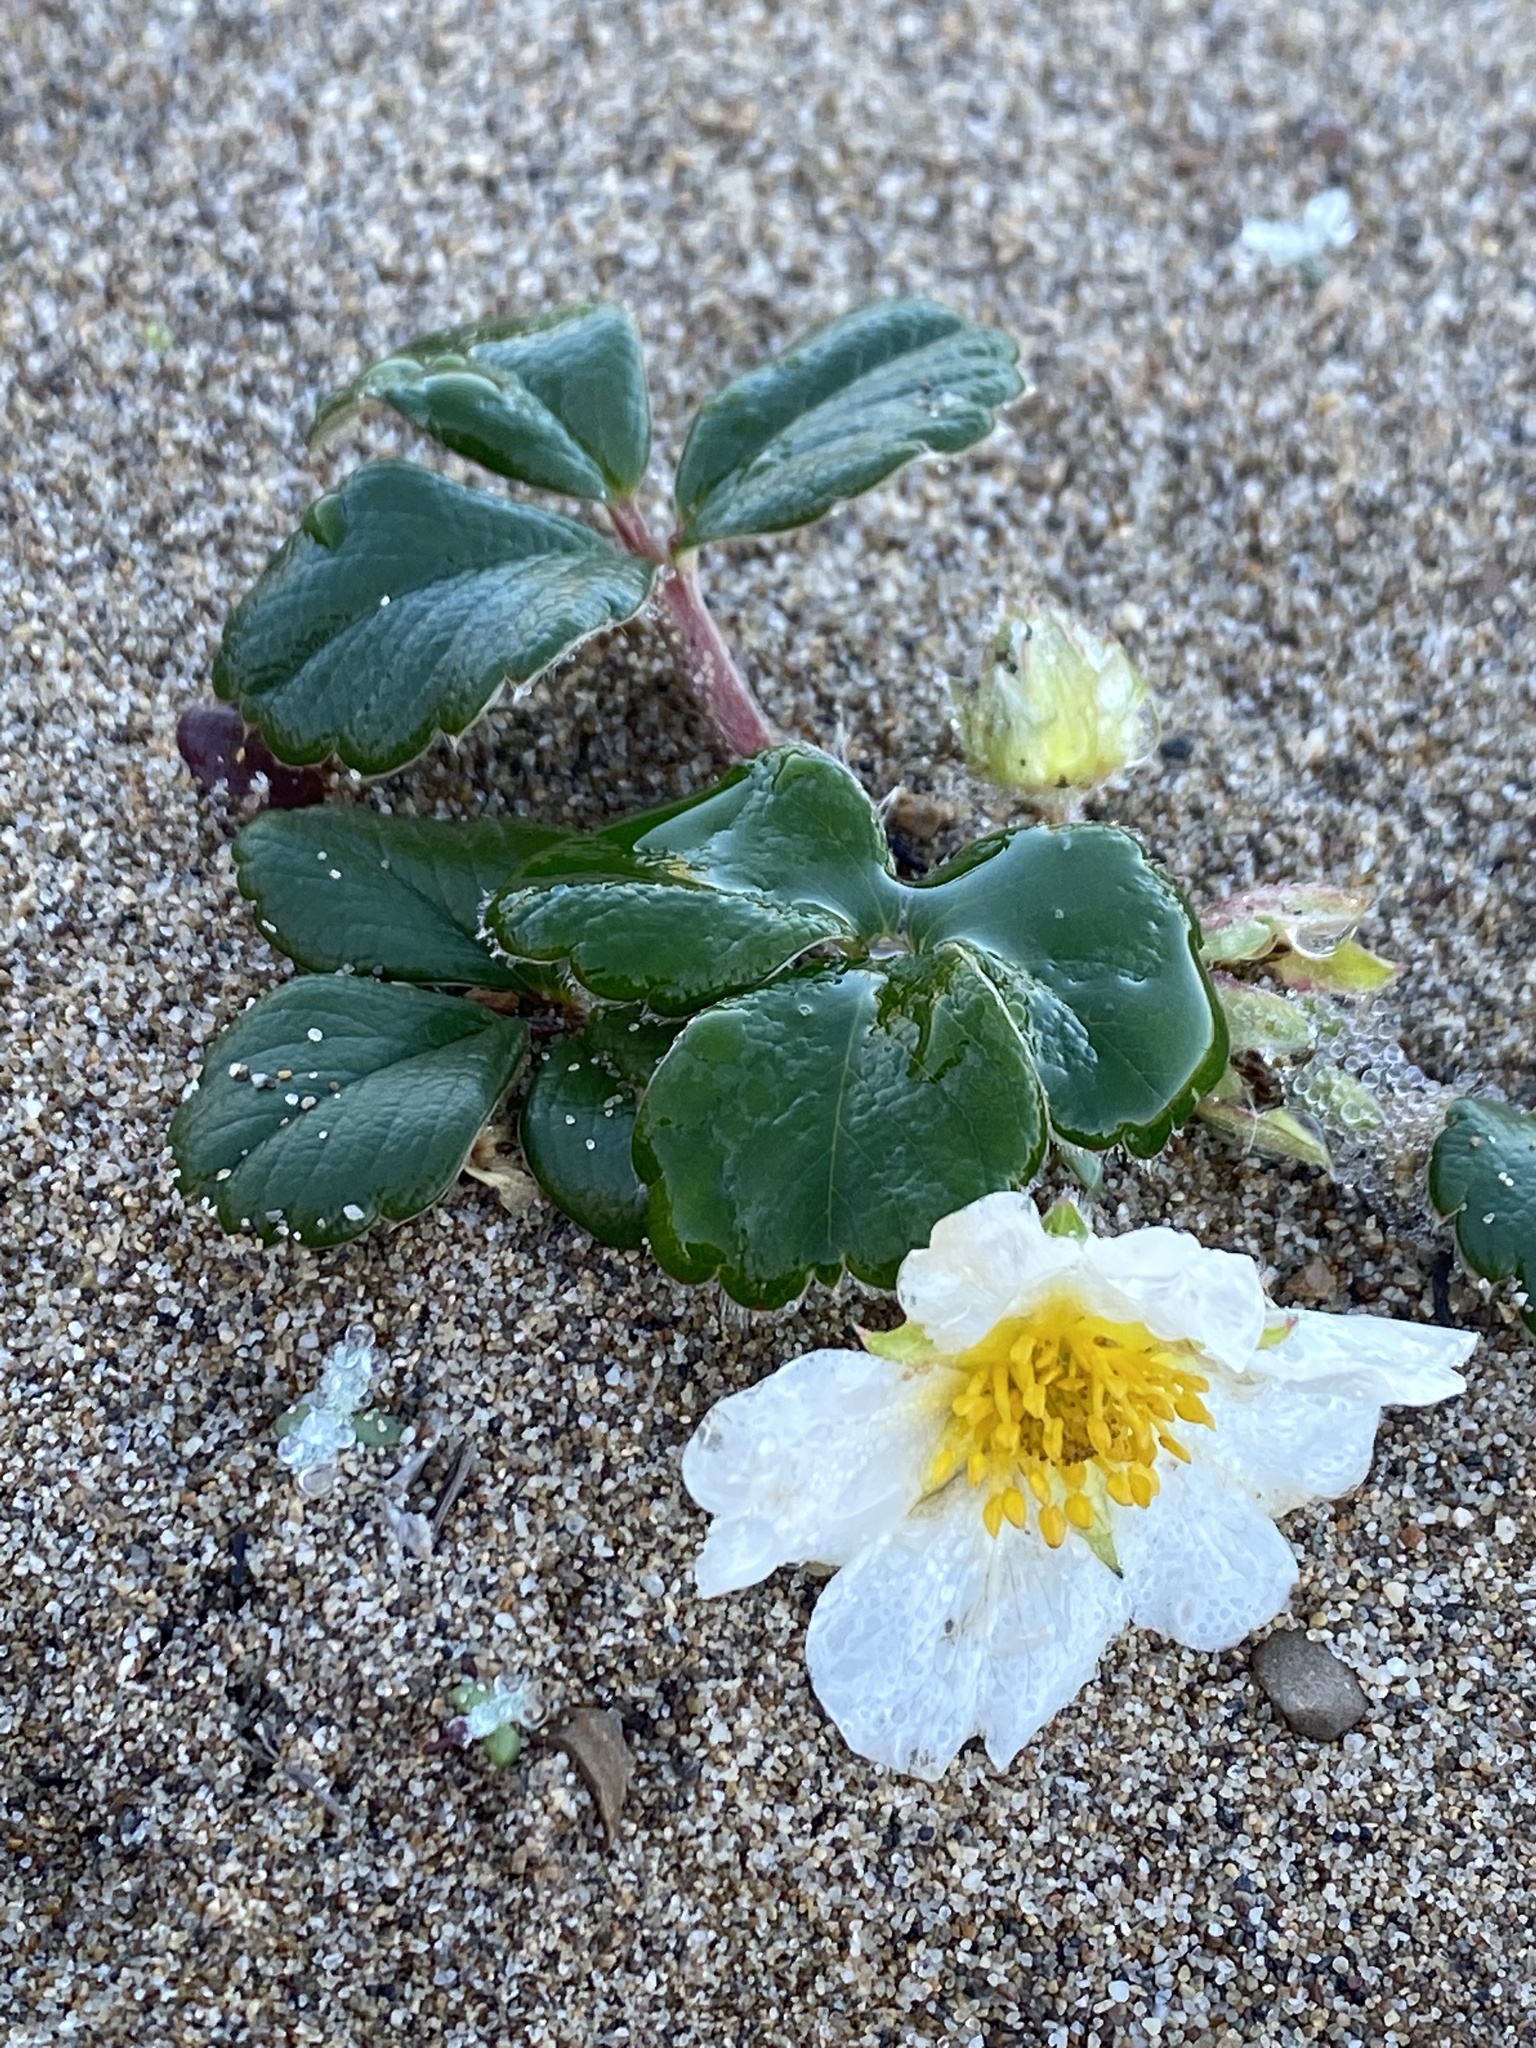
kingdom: Plantae
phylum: Tracheophyta
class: Magnoliopsida
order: Rosales
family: Rosaceae
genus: Fragaria
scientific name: Fragaria chiloensis
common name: Beach strawberry
